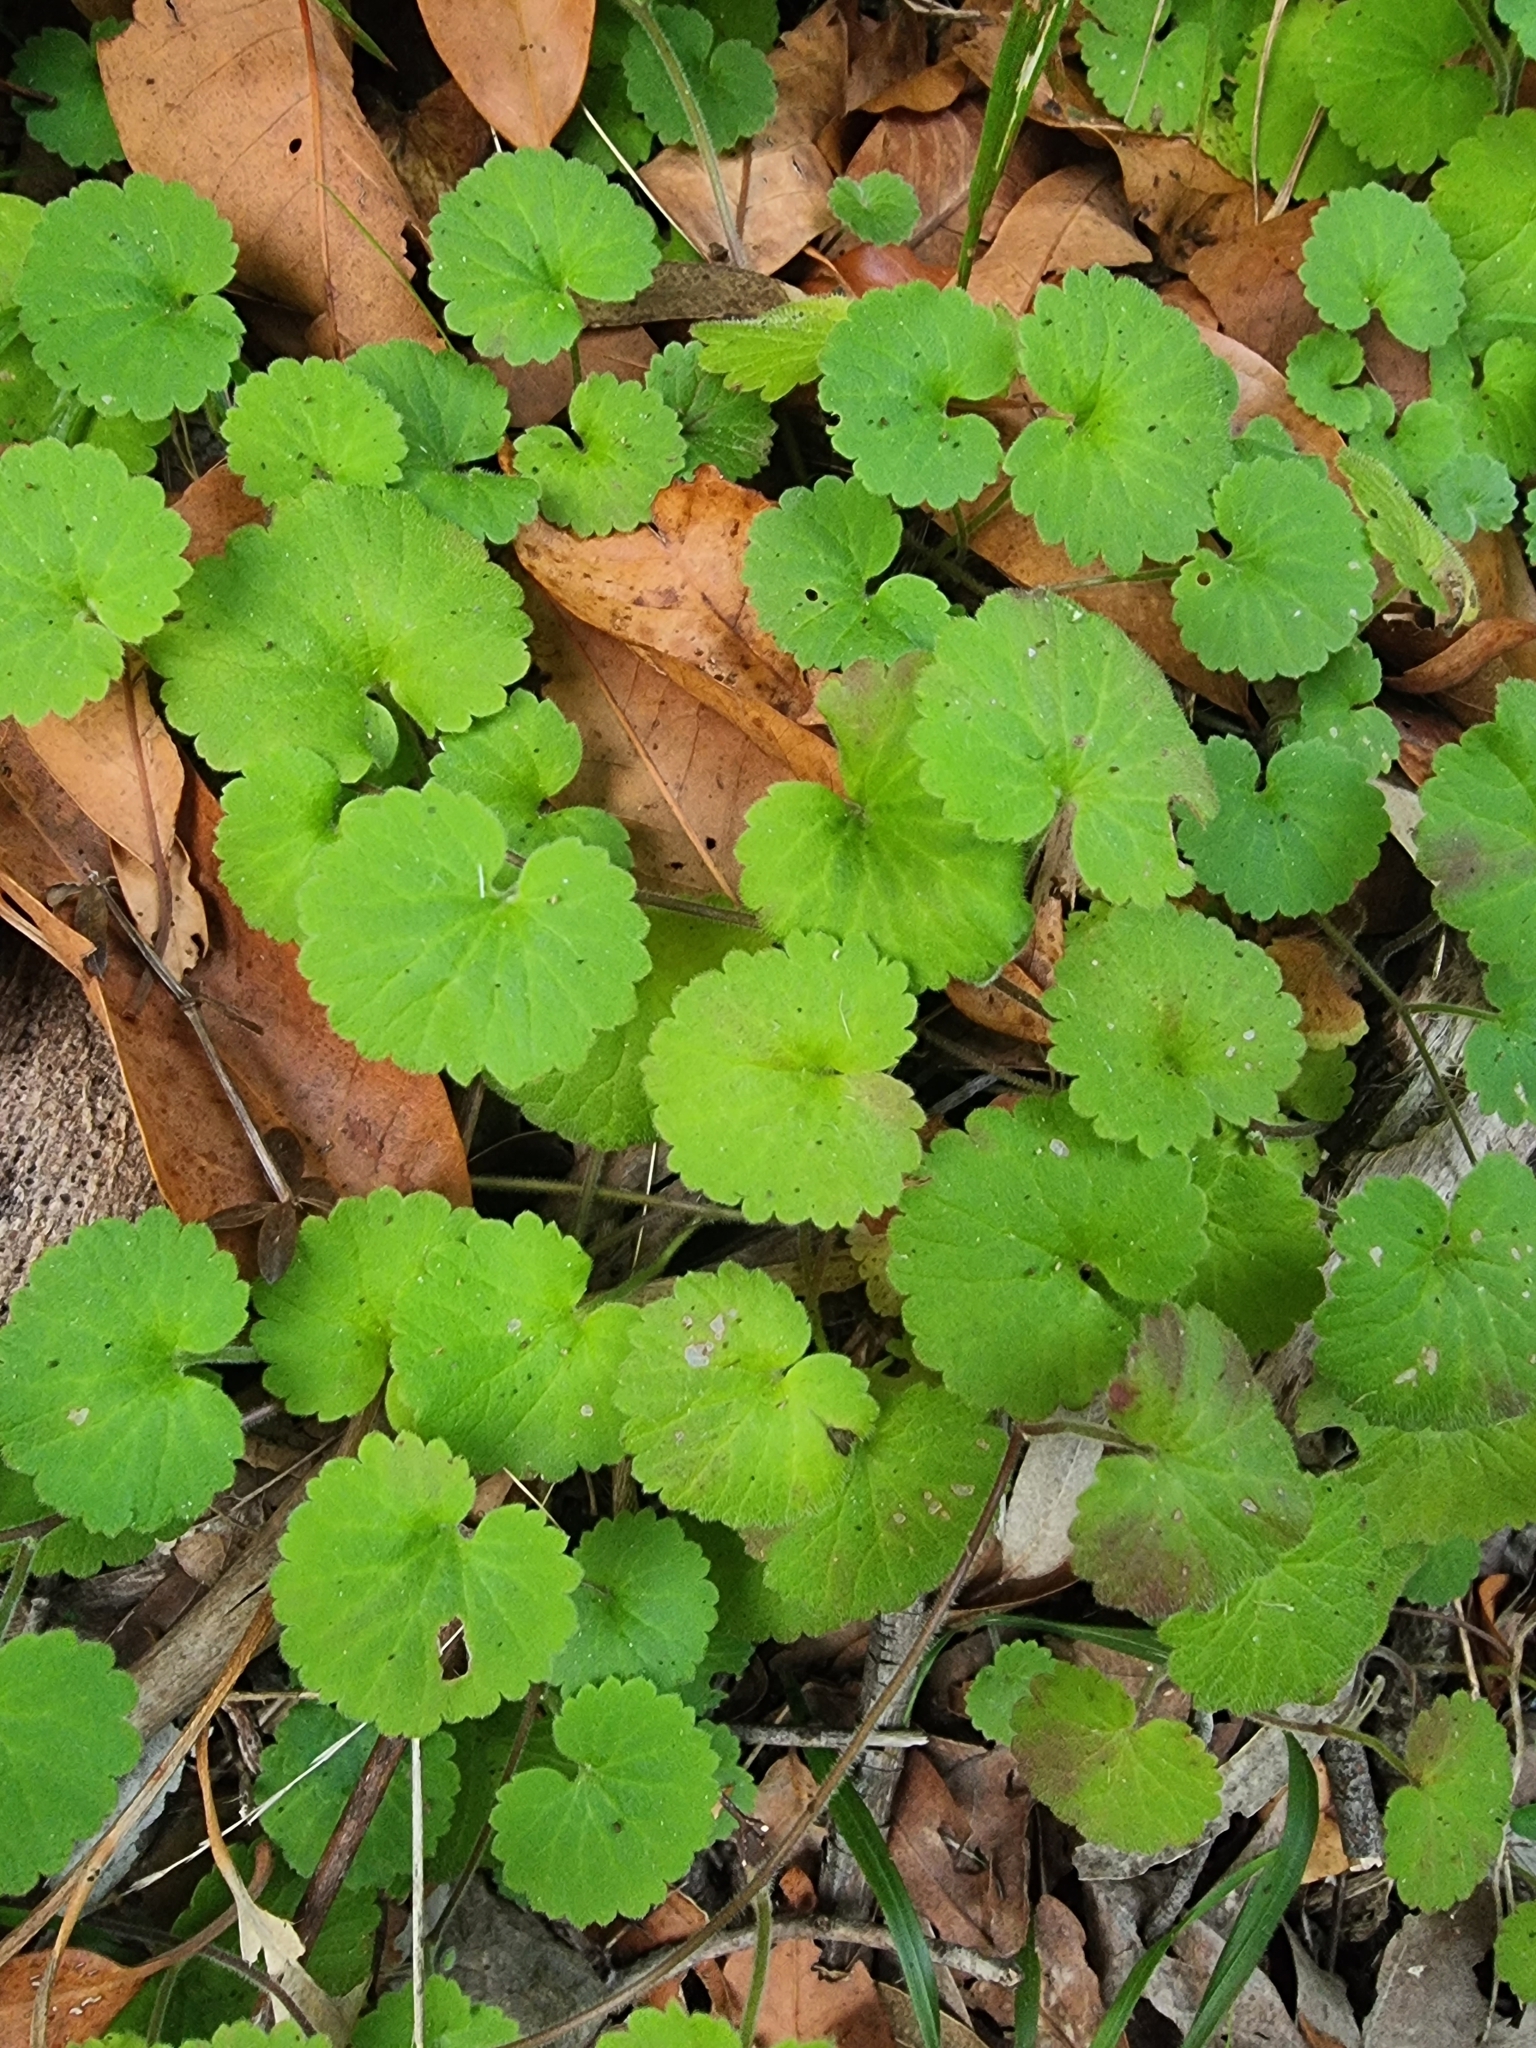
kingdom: Plantae
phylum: Tracheophyta
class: Magnoliopsida
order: Lamiales
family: Plantaginaceae
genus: Sibthorpia
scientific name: Sibthorpia peregrina
